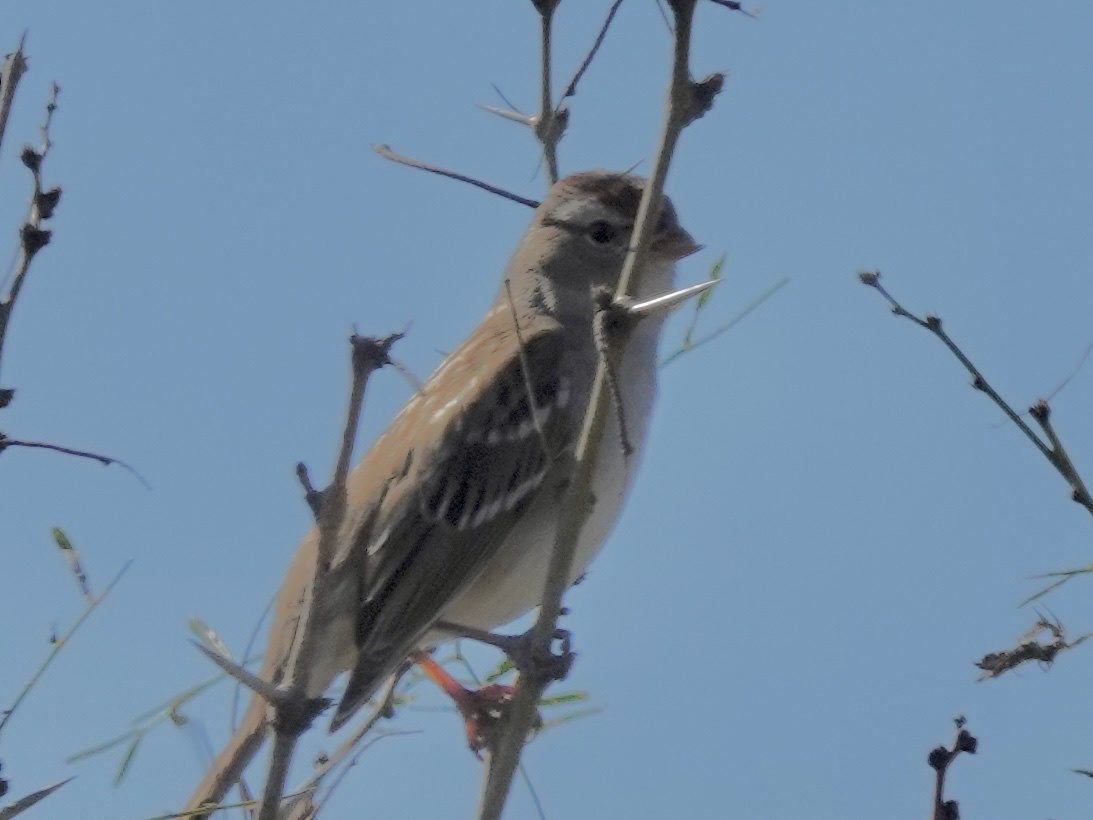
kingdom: Animalia
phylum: Chordata
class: Aves
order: Passeriformes
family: Passerellidae
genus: Zonotrichia
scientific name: Zonotrichia leucophrys
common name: White-crowned sparrow
